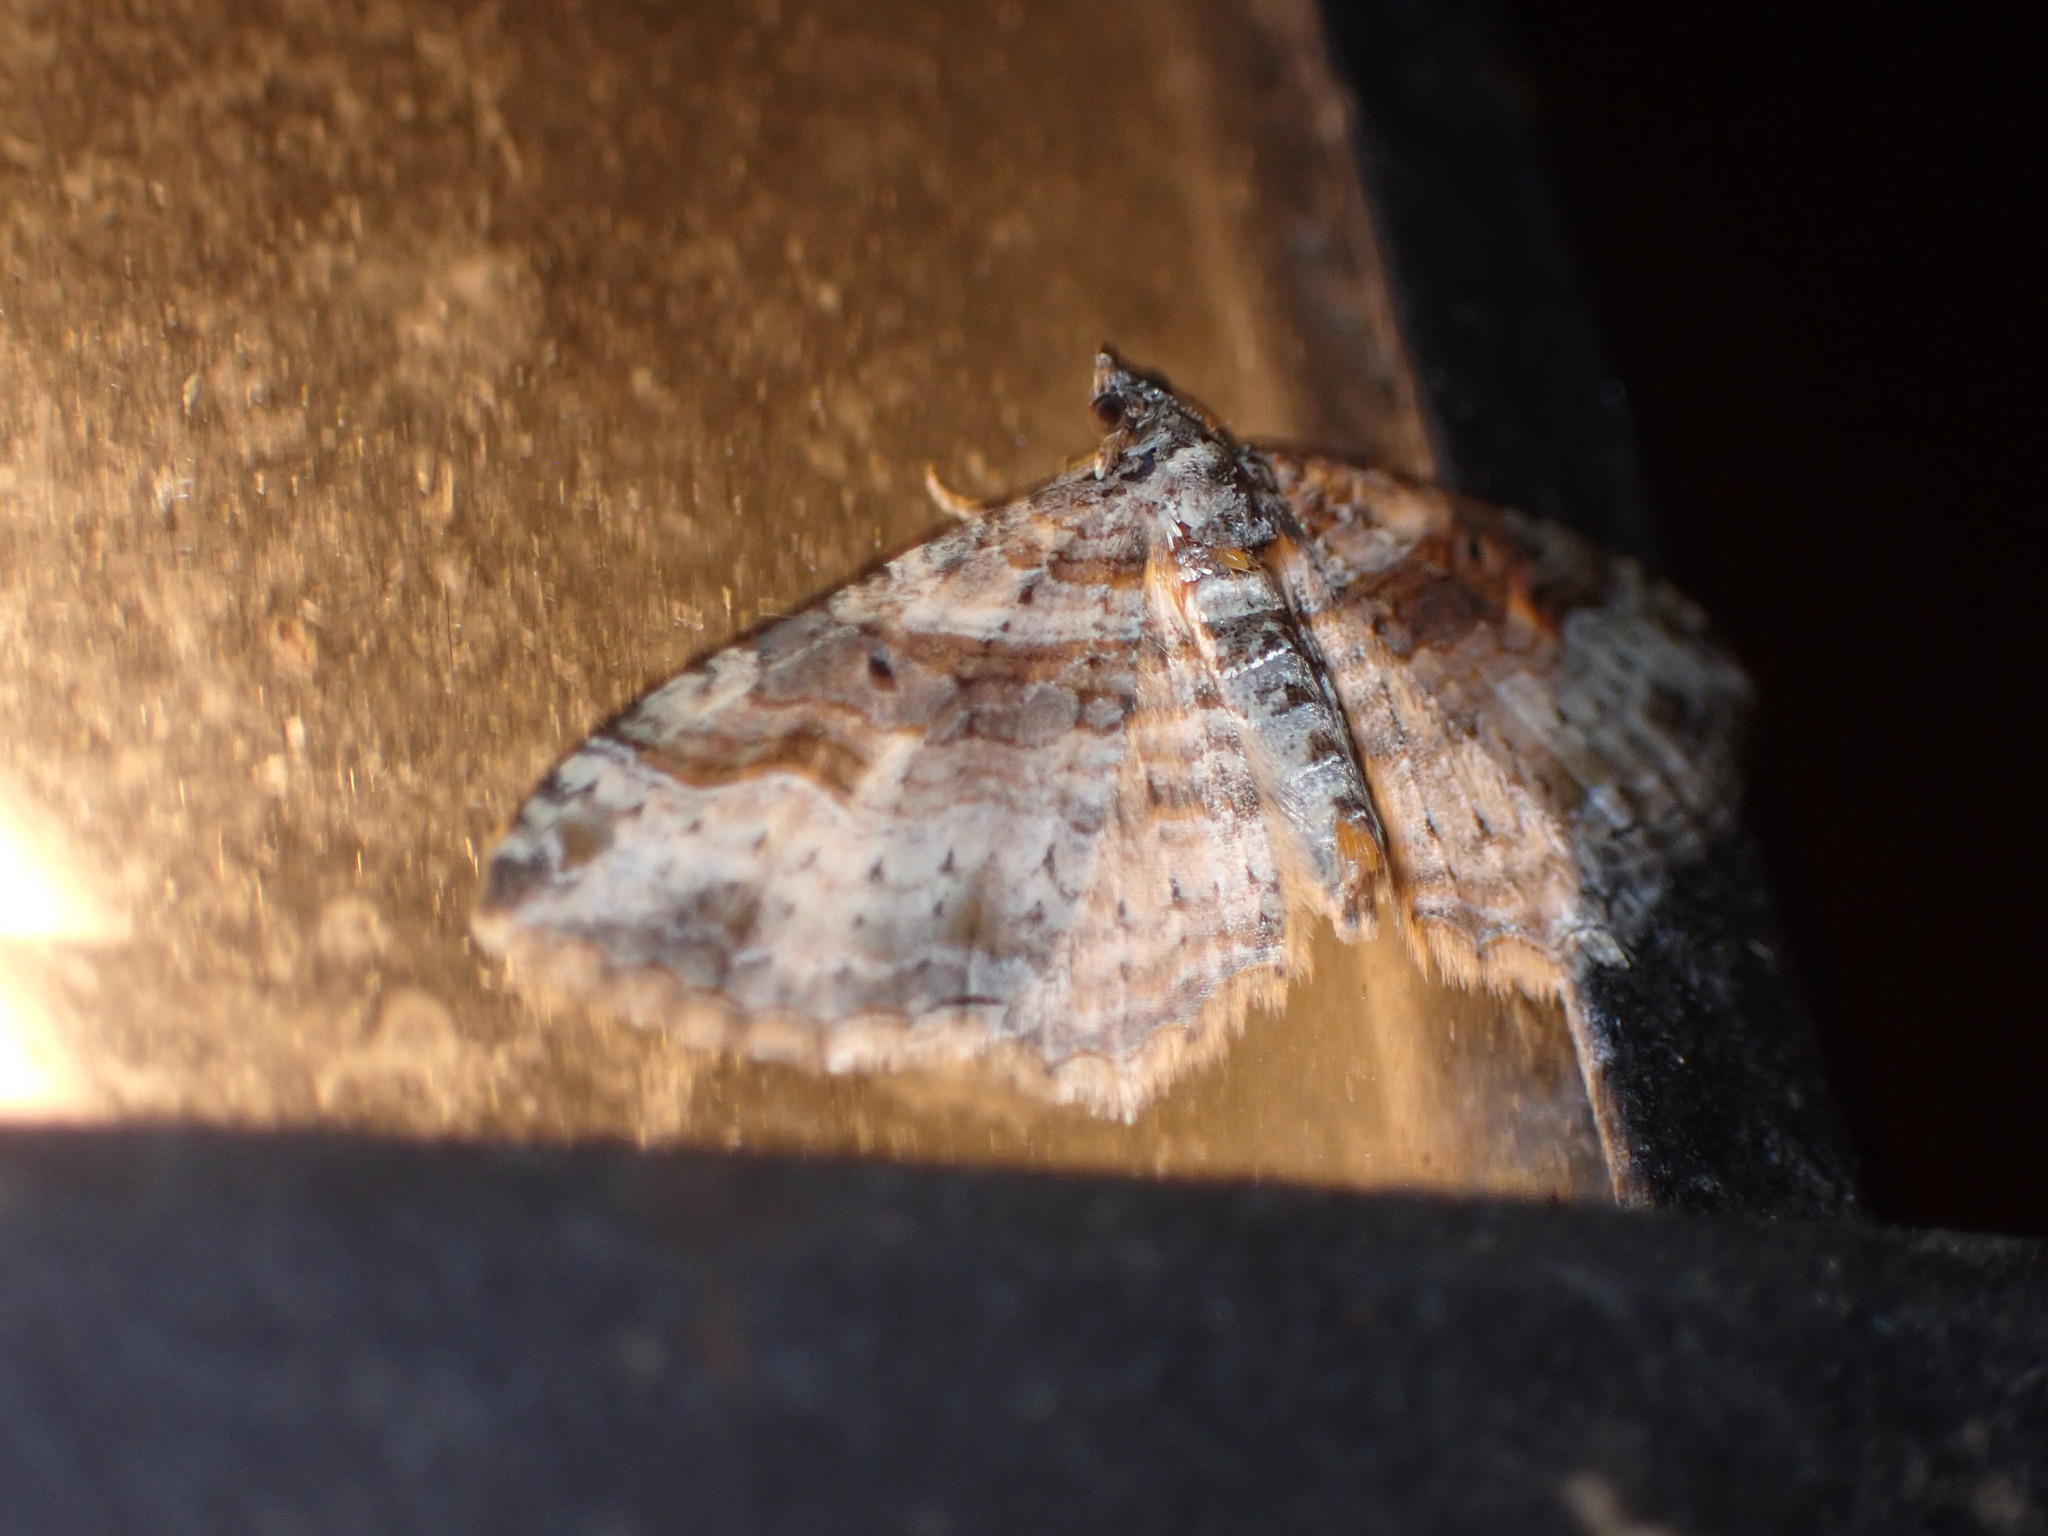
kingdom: Animalia
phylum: Arthropoda
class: Insecta
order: Lepidoptera
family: Geometridae
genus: Costaconvexa
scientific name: Costaconvexa centrostrigaria
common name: Bent-line carpet
